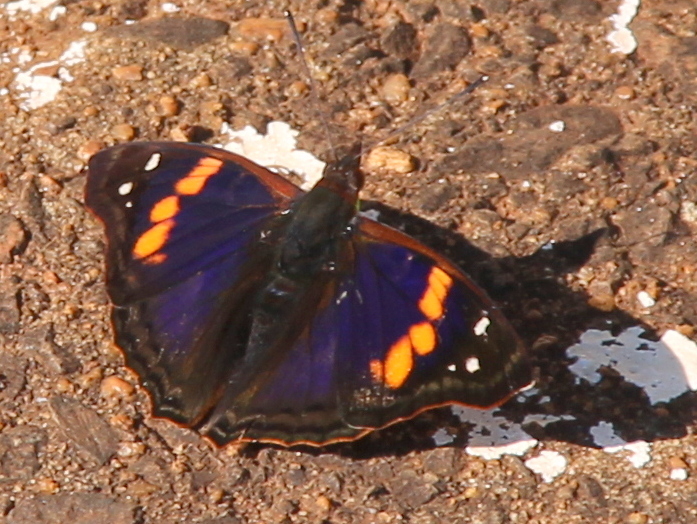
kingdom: Animalia
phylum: Arthropoda
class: Insecta
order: Lepidoptera
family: Nymphalidae
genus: Doxocopa
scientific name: Doxocopa agathina
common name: Agathina emperor
